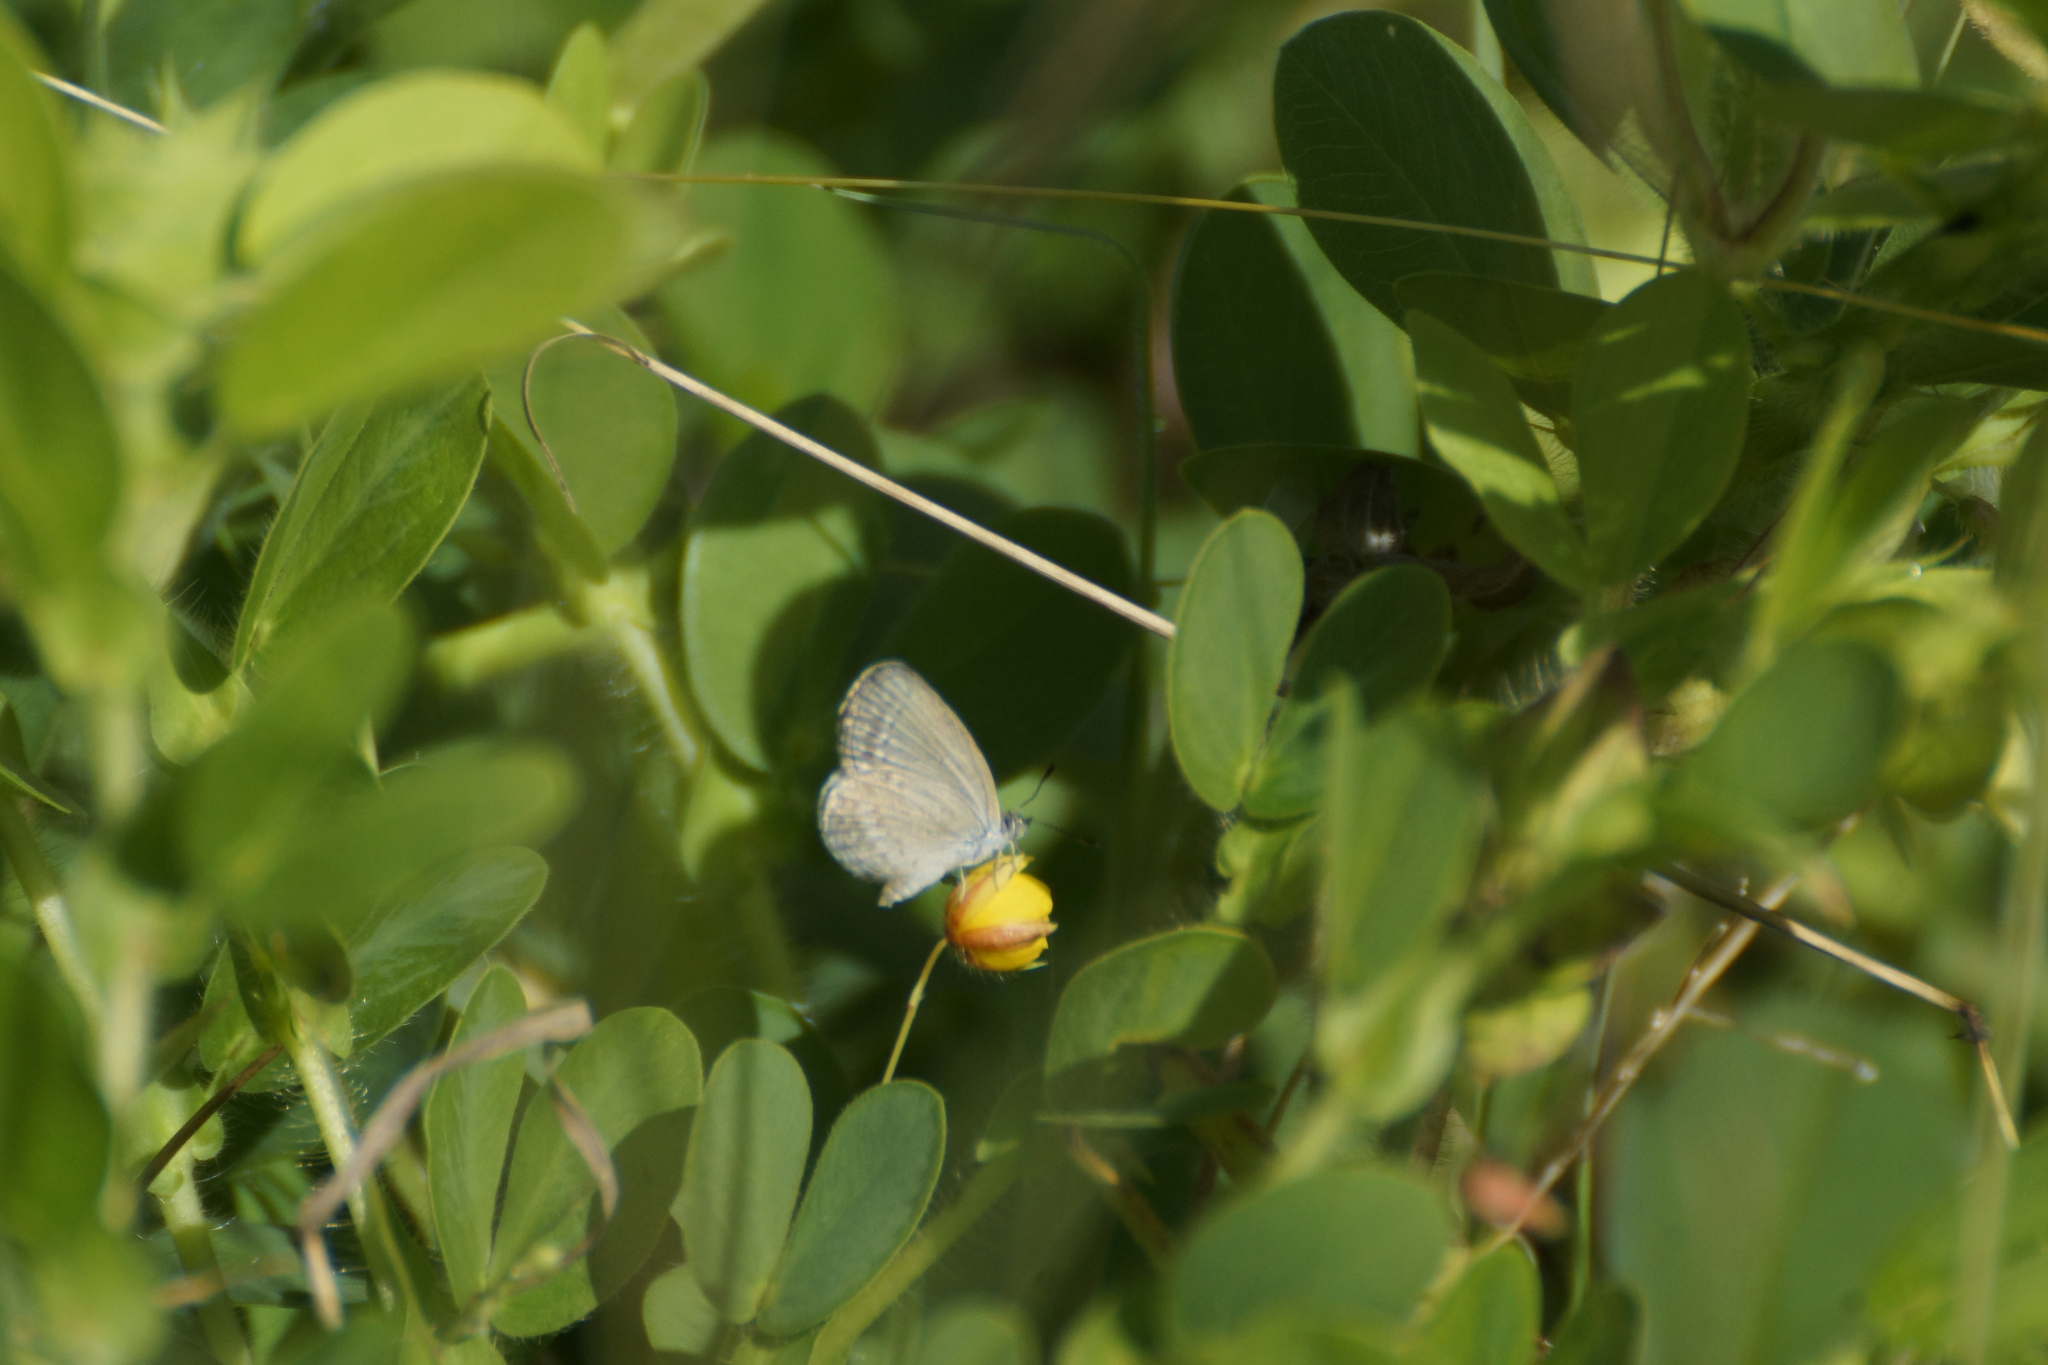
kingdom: Animalia
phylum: Arthropoda
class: Insecta
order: Lepidoptera
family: Lycaenidae
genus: Zizina
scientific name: Zizina otis
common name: Lesser grass blue
